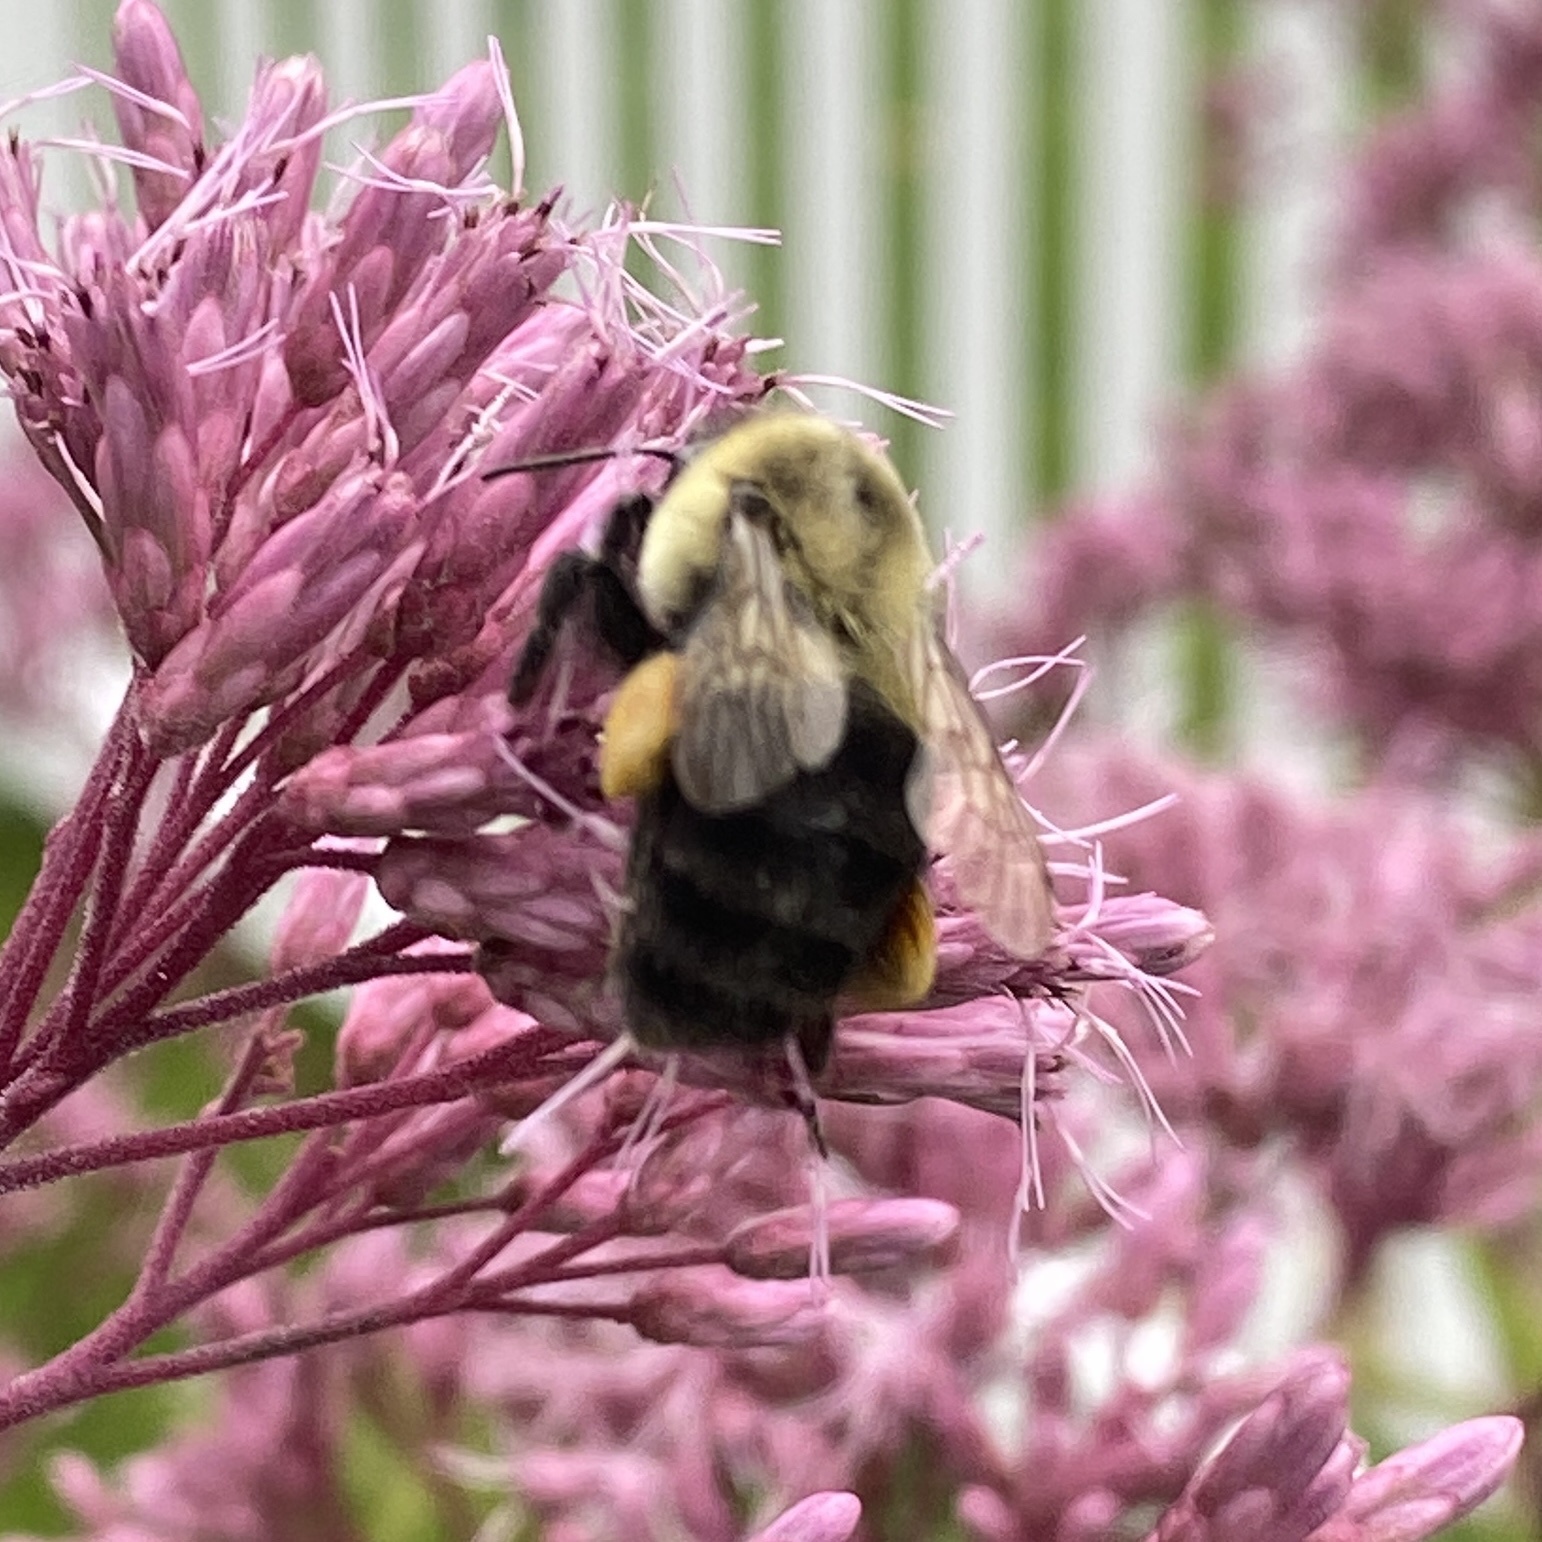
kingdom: Animalia
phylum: Arthropoda
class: Insecta
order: Hymenoptera
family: Apidae
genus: Bombus
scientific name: Bombus impatiens
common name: Common eastern bumble bee
